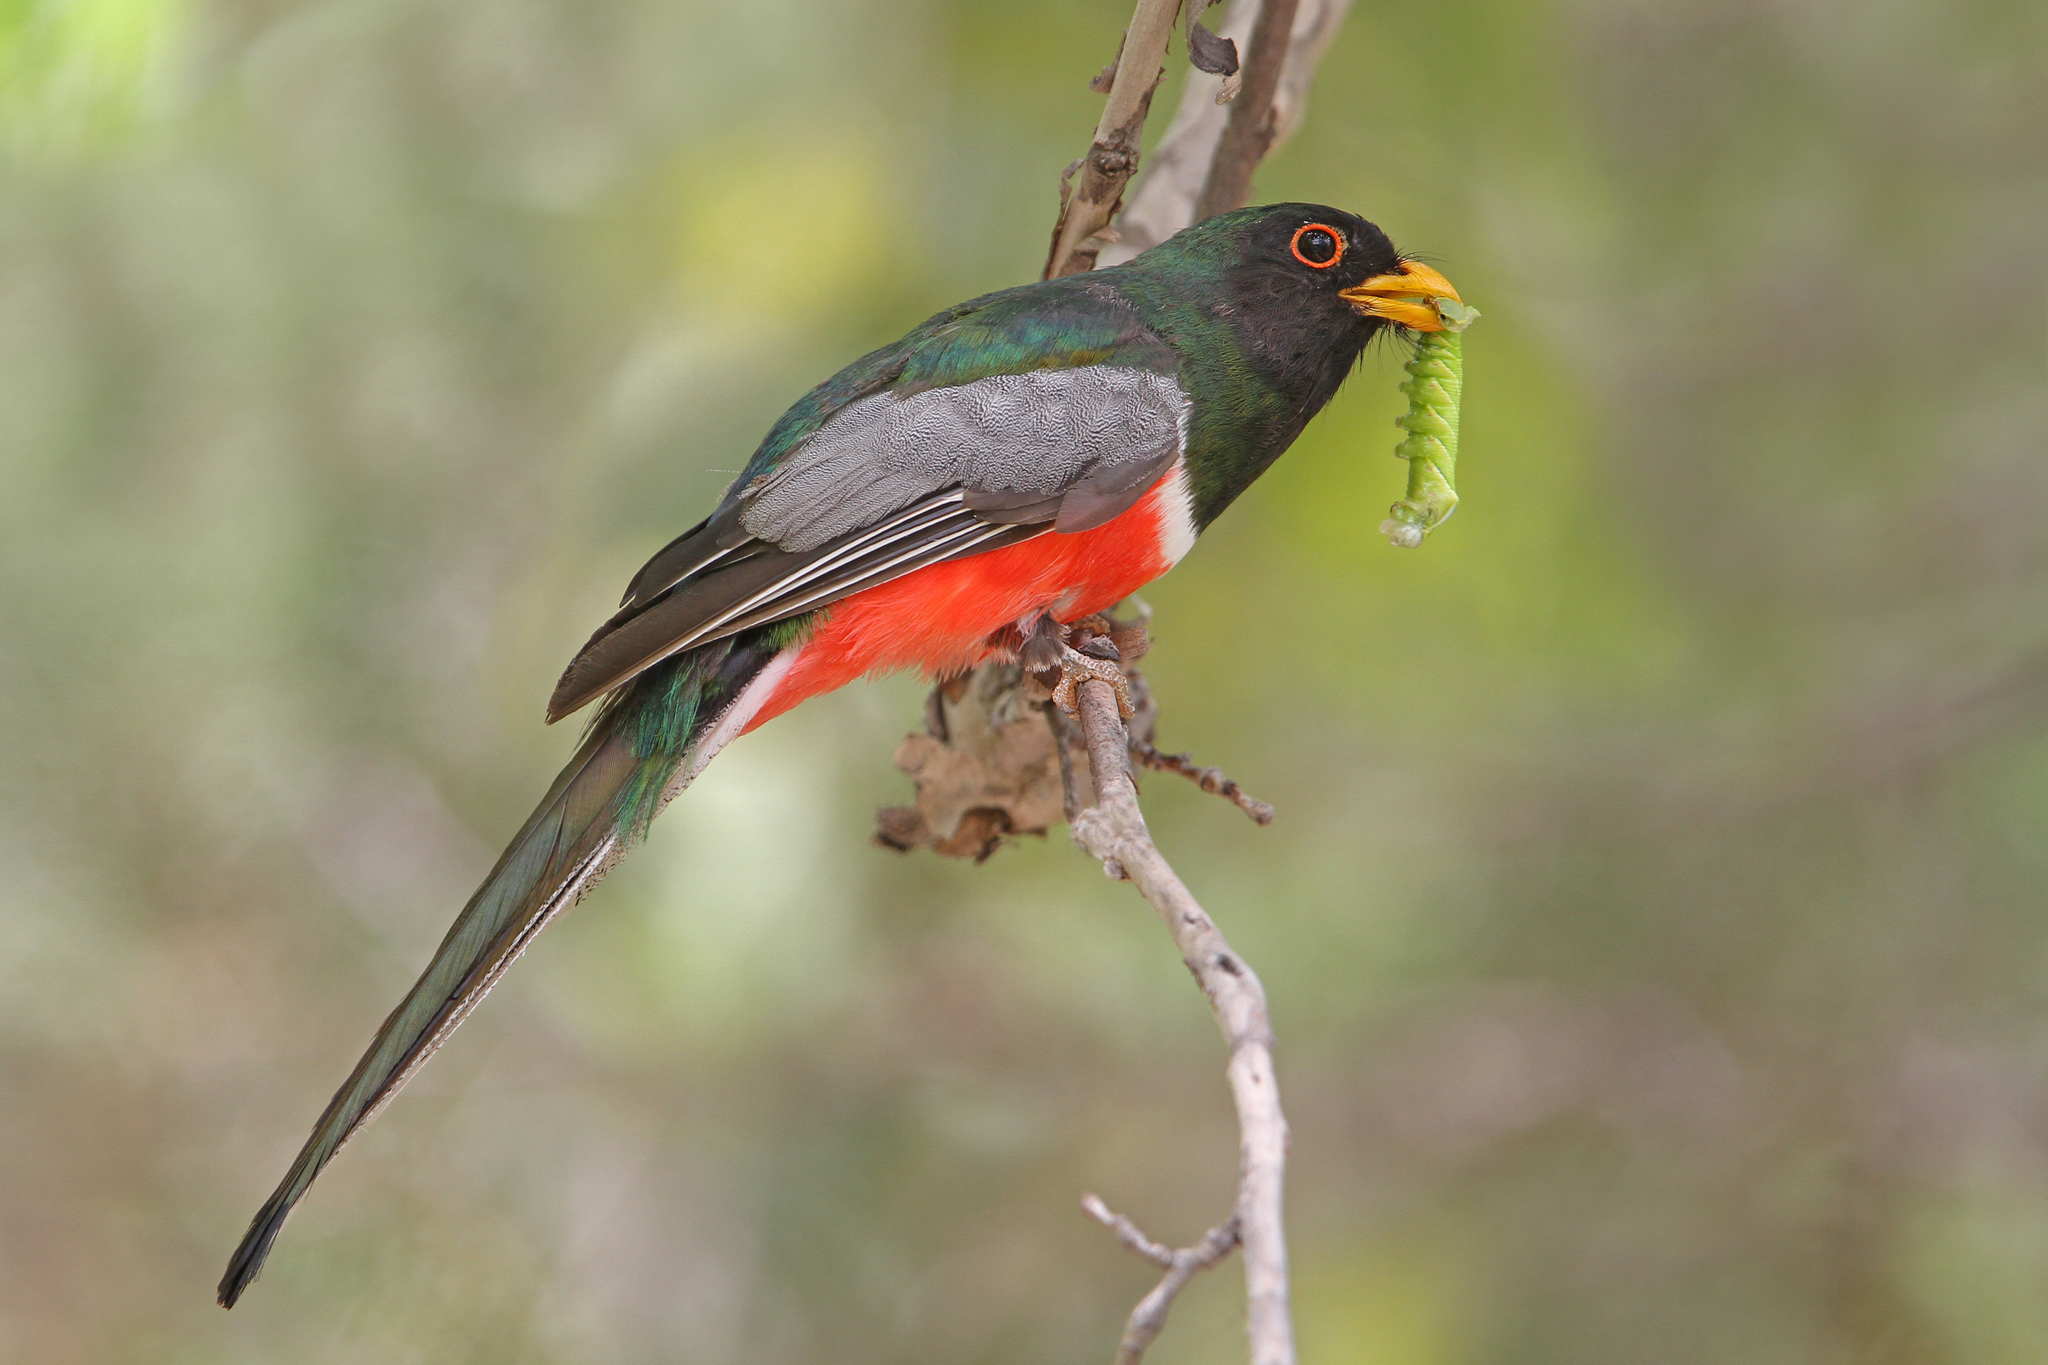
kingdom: Animalia
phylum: Chordata
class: Aves
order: Trogoniformes
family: Trogonidae
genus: Trogon
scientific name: Trogon elegans
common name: Elegant trogon
